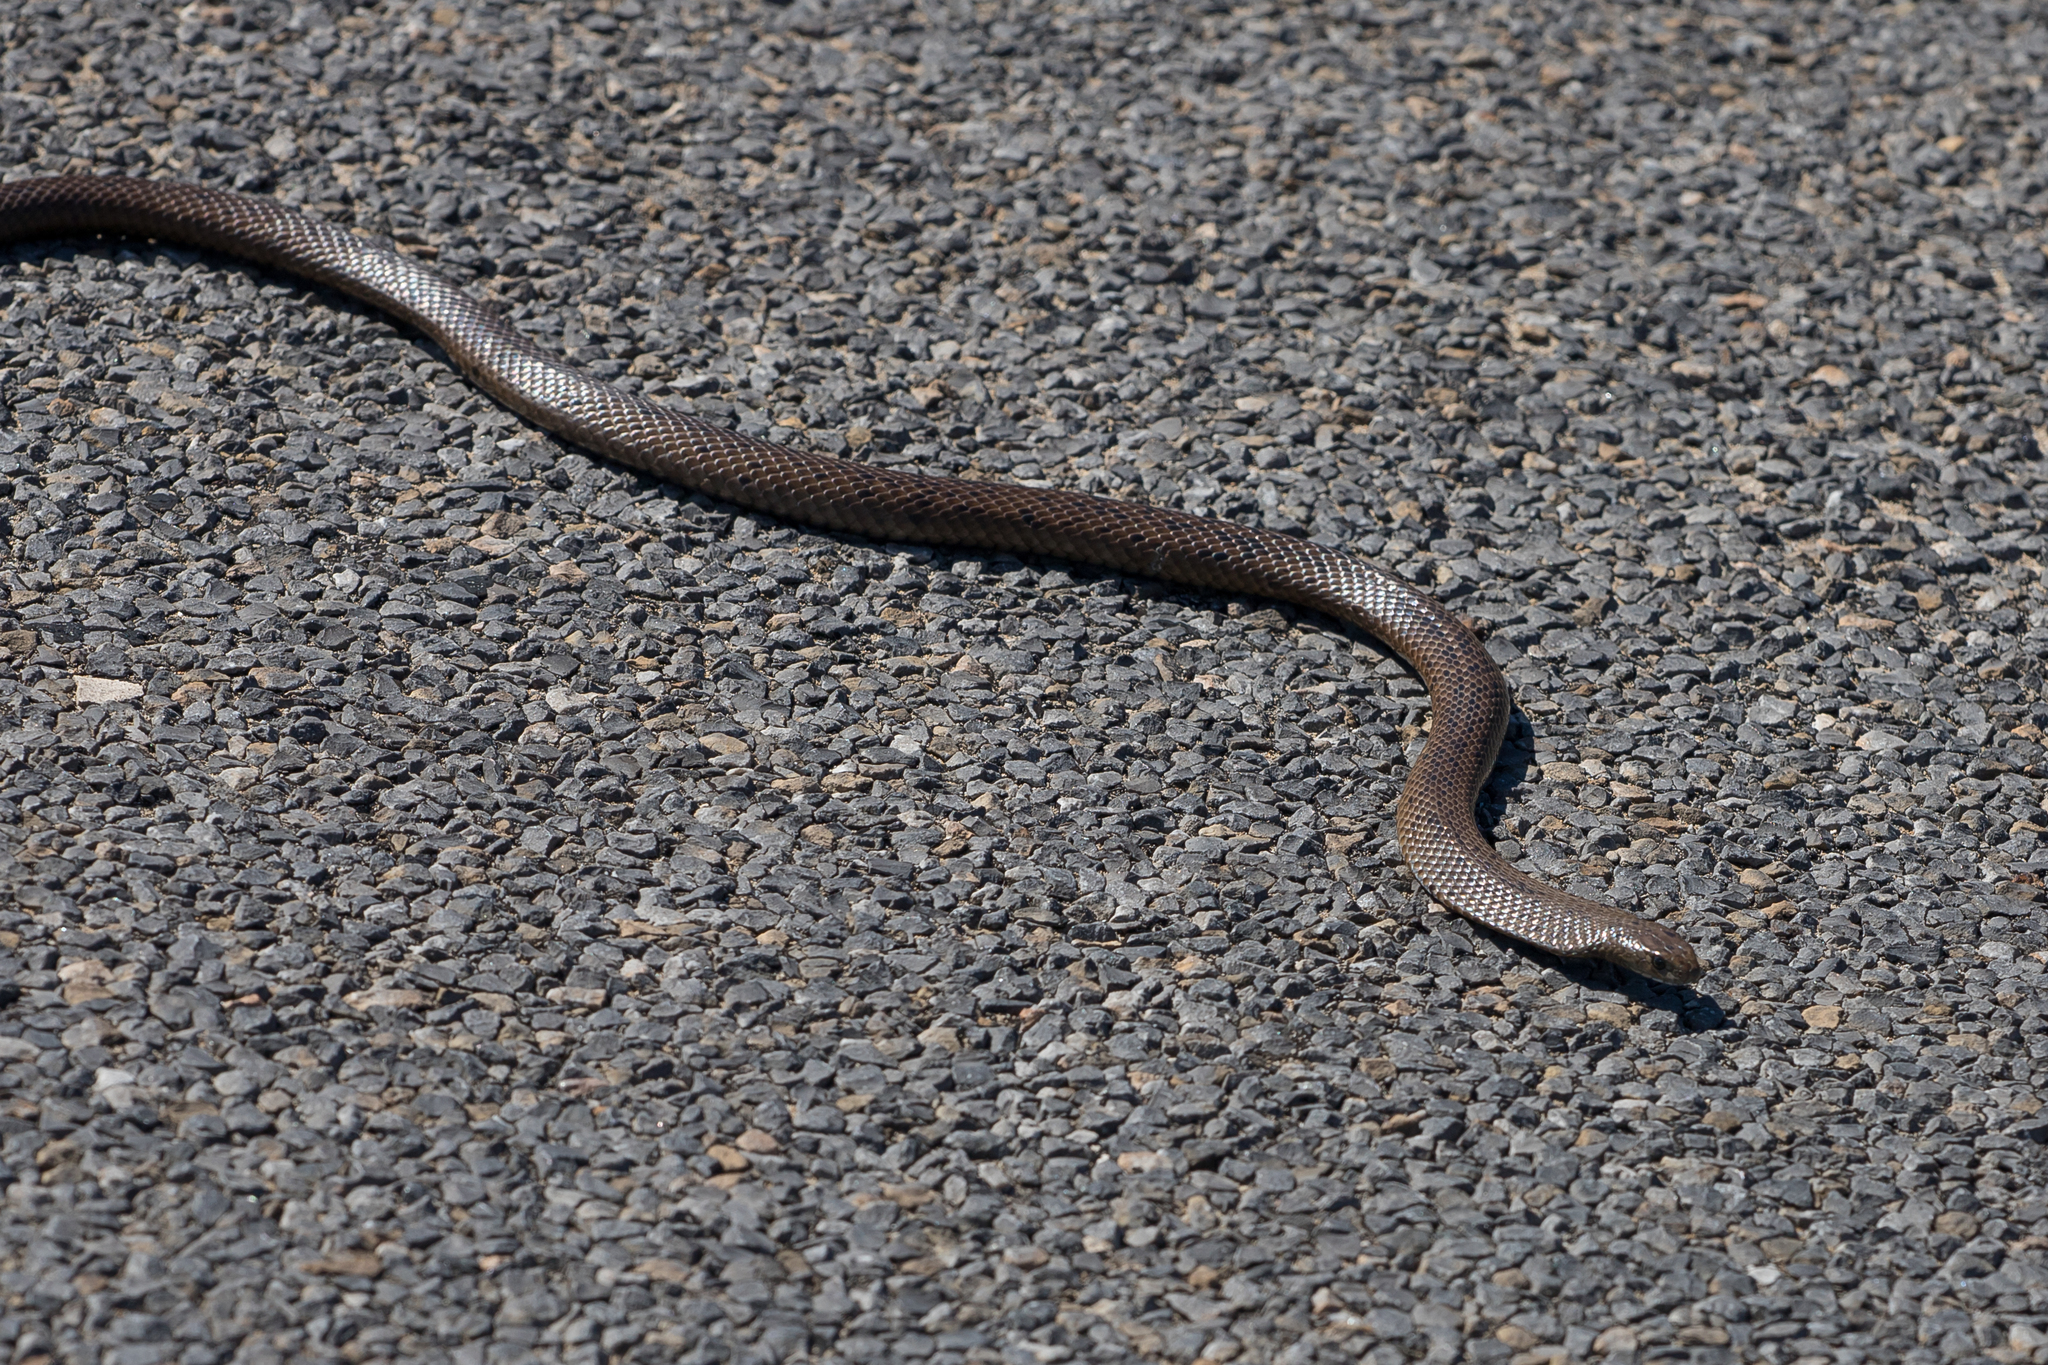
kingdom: Animalia
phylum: Chordata
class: Squamata
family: Elapidae
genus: Pseudonaja
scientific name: Pseudonaja inframacula
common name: Peninsula brown snake
